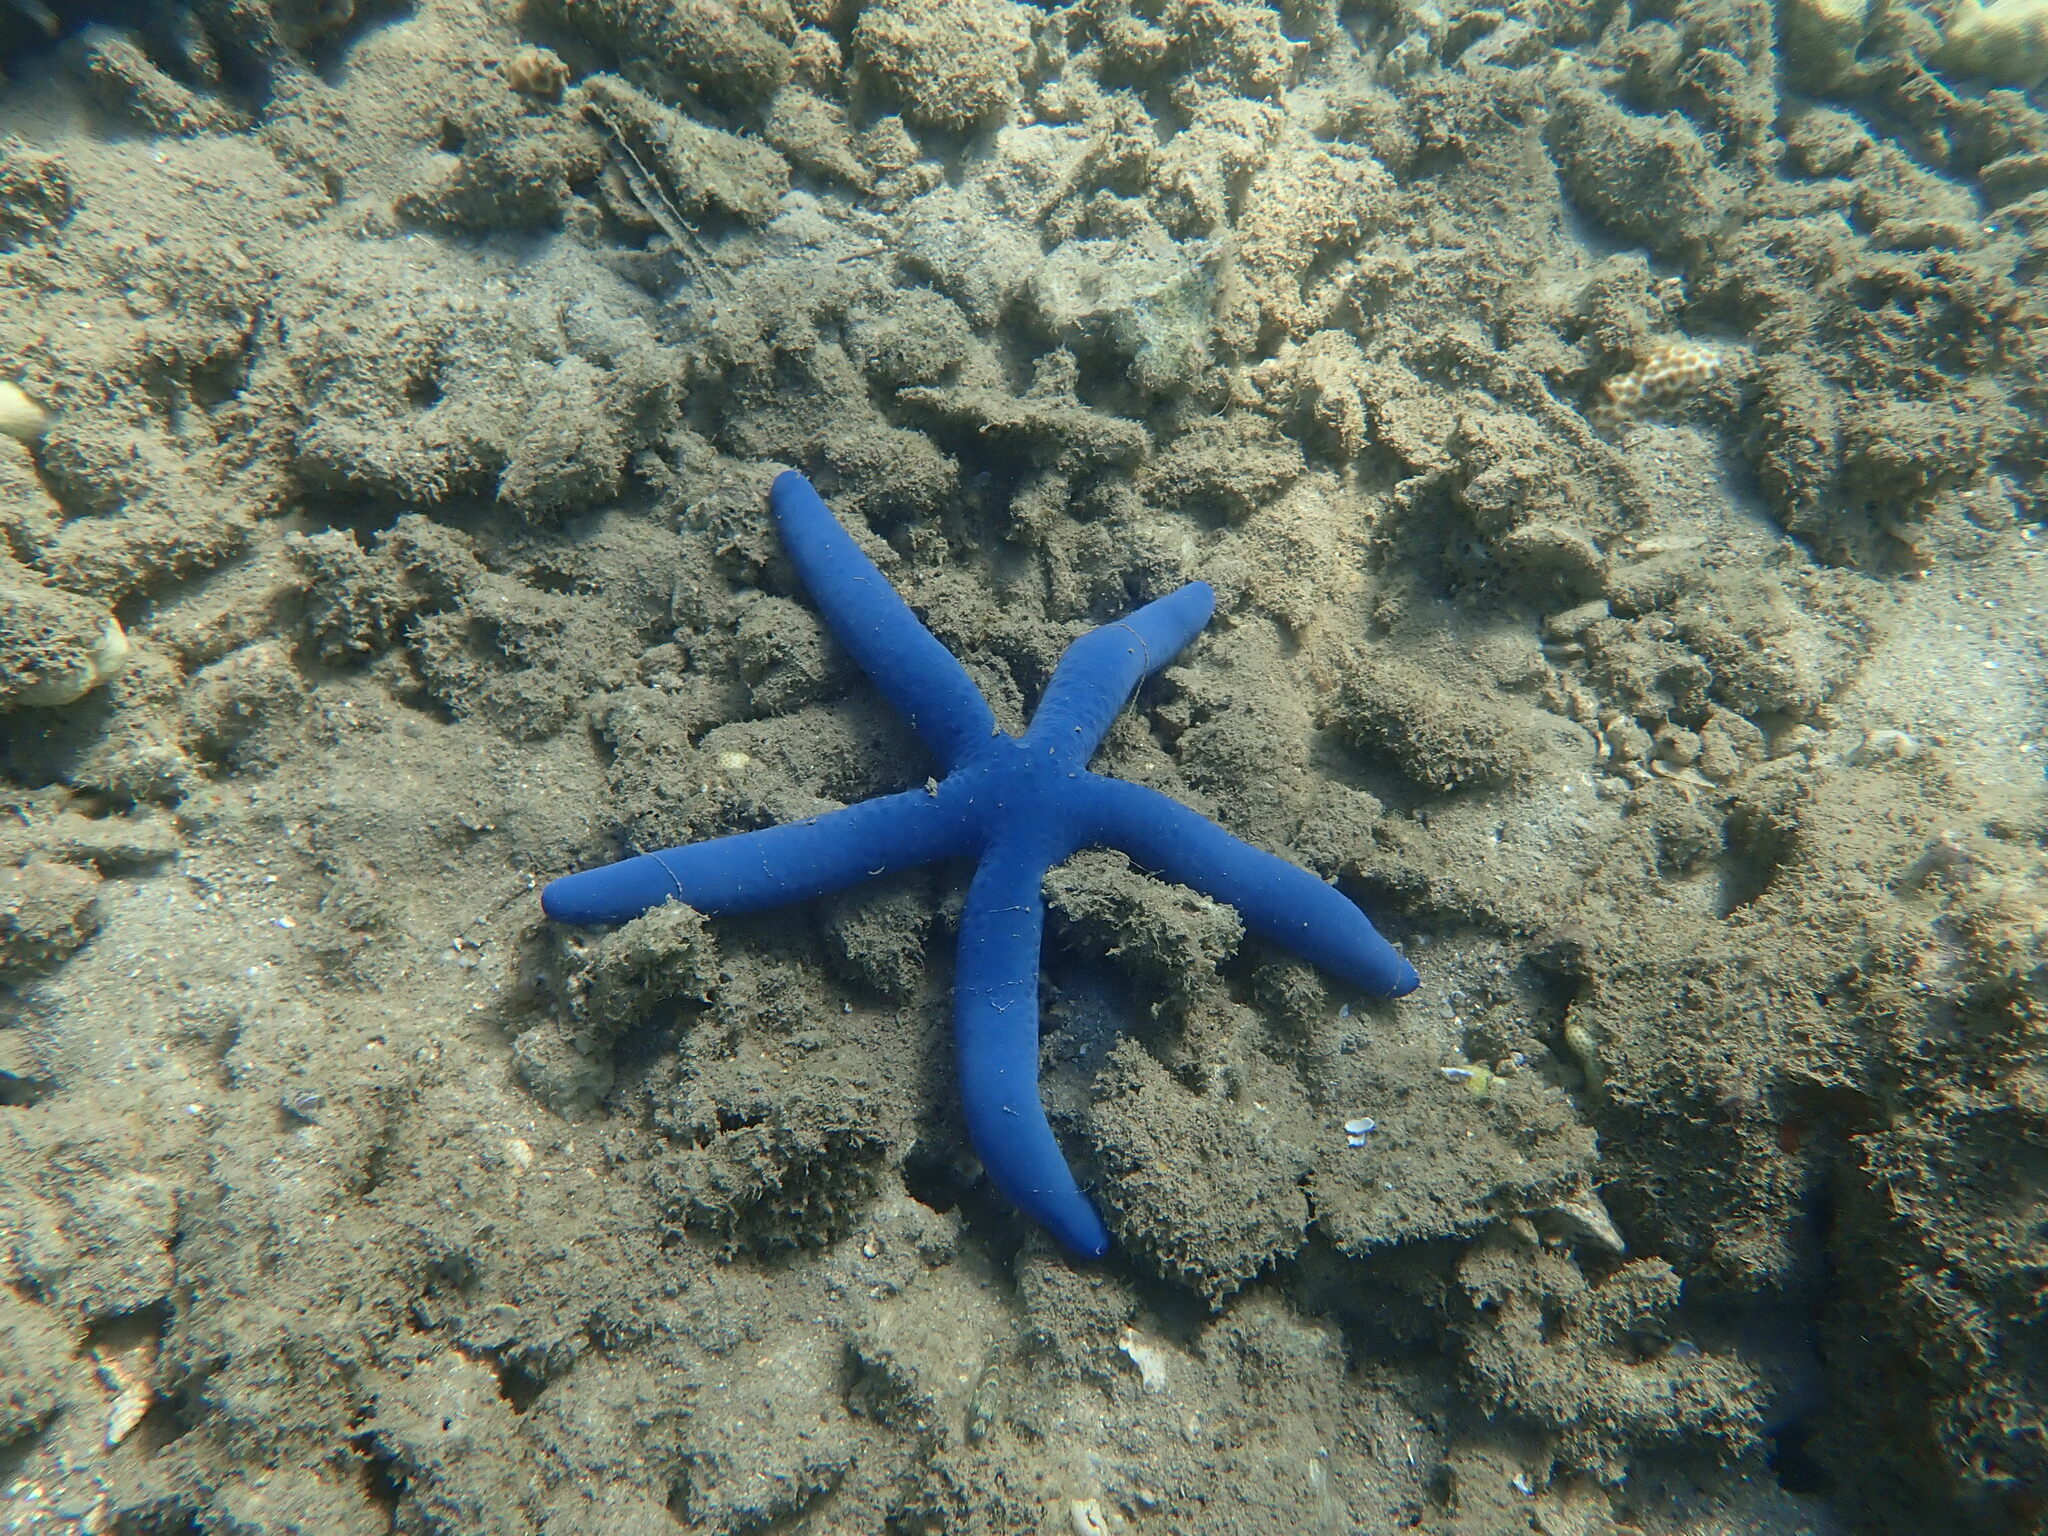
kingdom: Animalia
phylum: Echinodermata
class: Asteroidea
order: Valvatida
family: Ophidiasteridae
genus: Linckia
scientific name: Linckia laevigata
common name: Azure sea star
